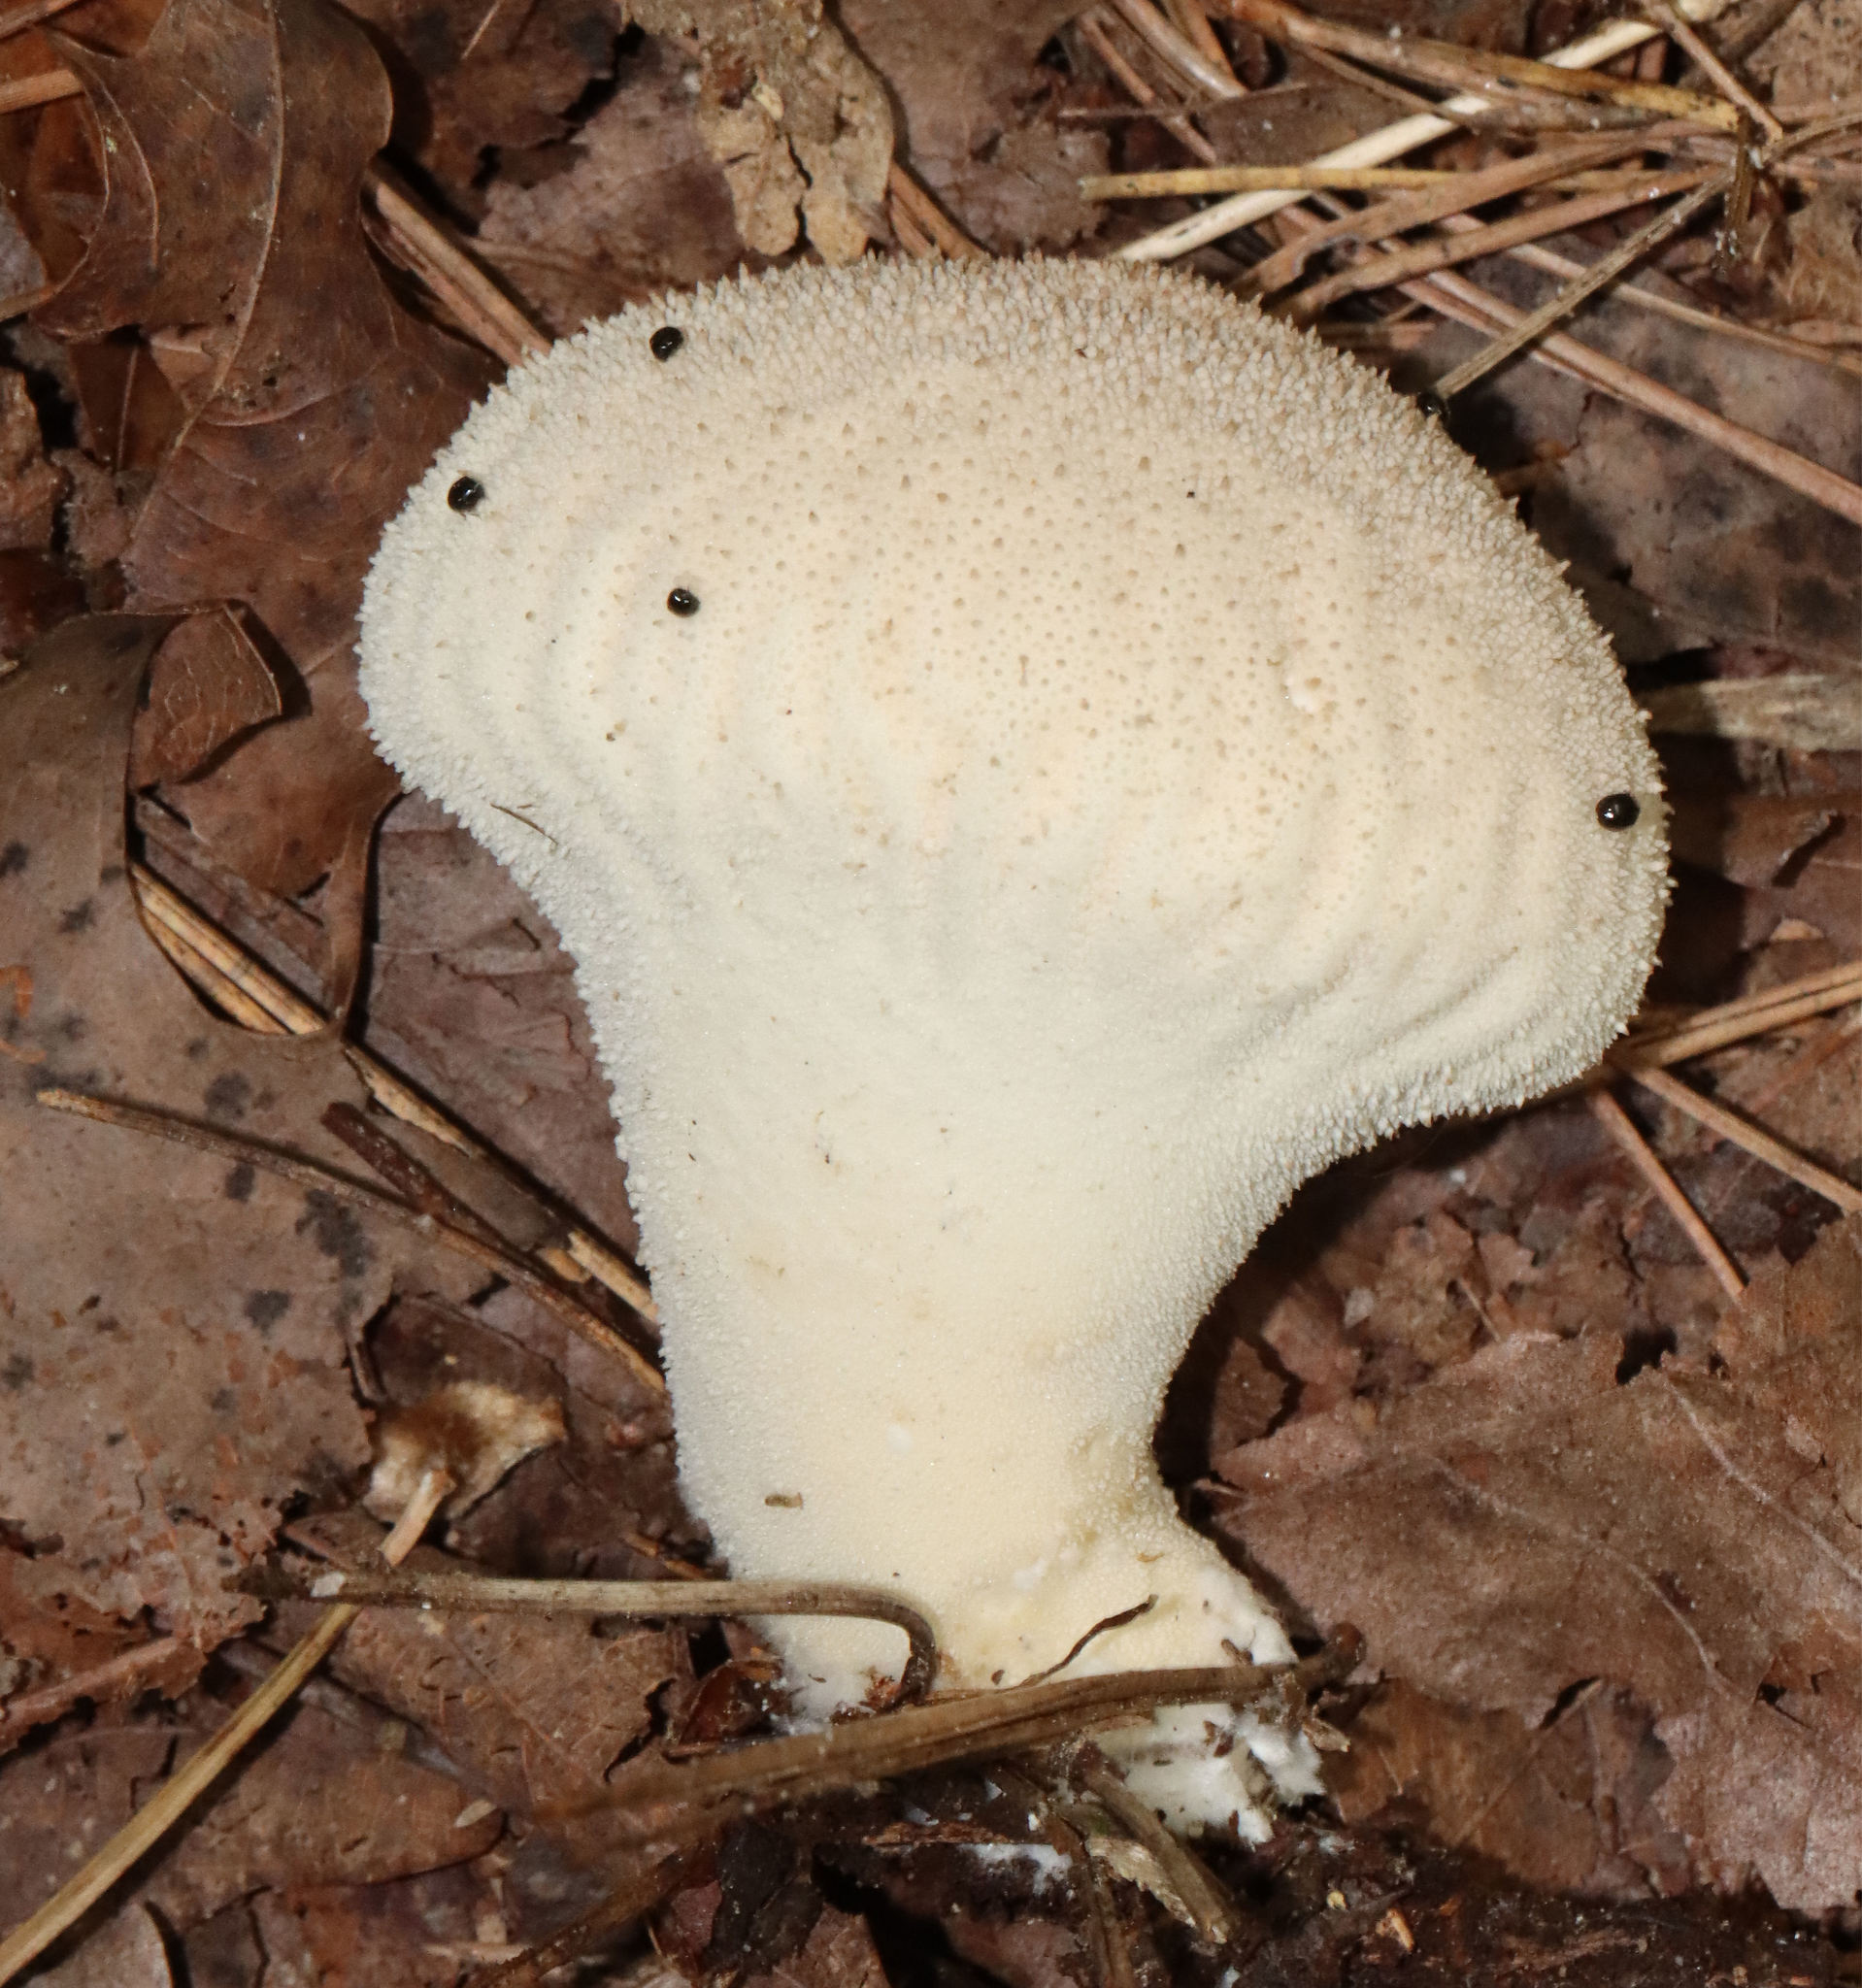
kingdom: Fungi
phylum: Basidiomycota
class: Agaricomycetes
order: Agaricales
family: Lycoperdaceae
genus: Lycoperdon
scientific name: Lycoperdon perlatum
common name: Common puffball
